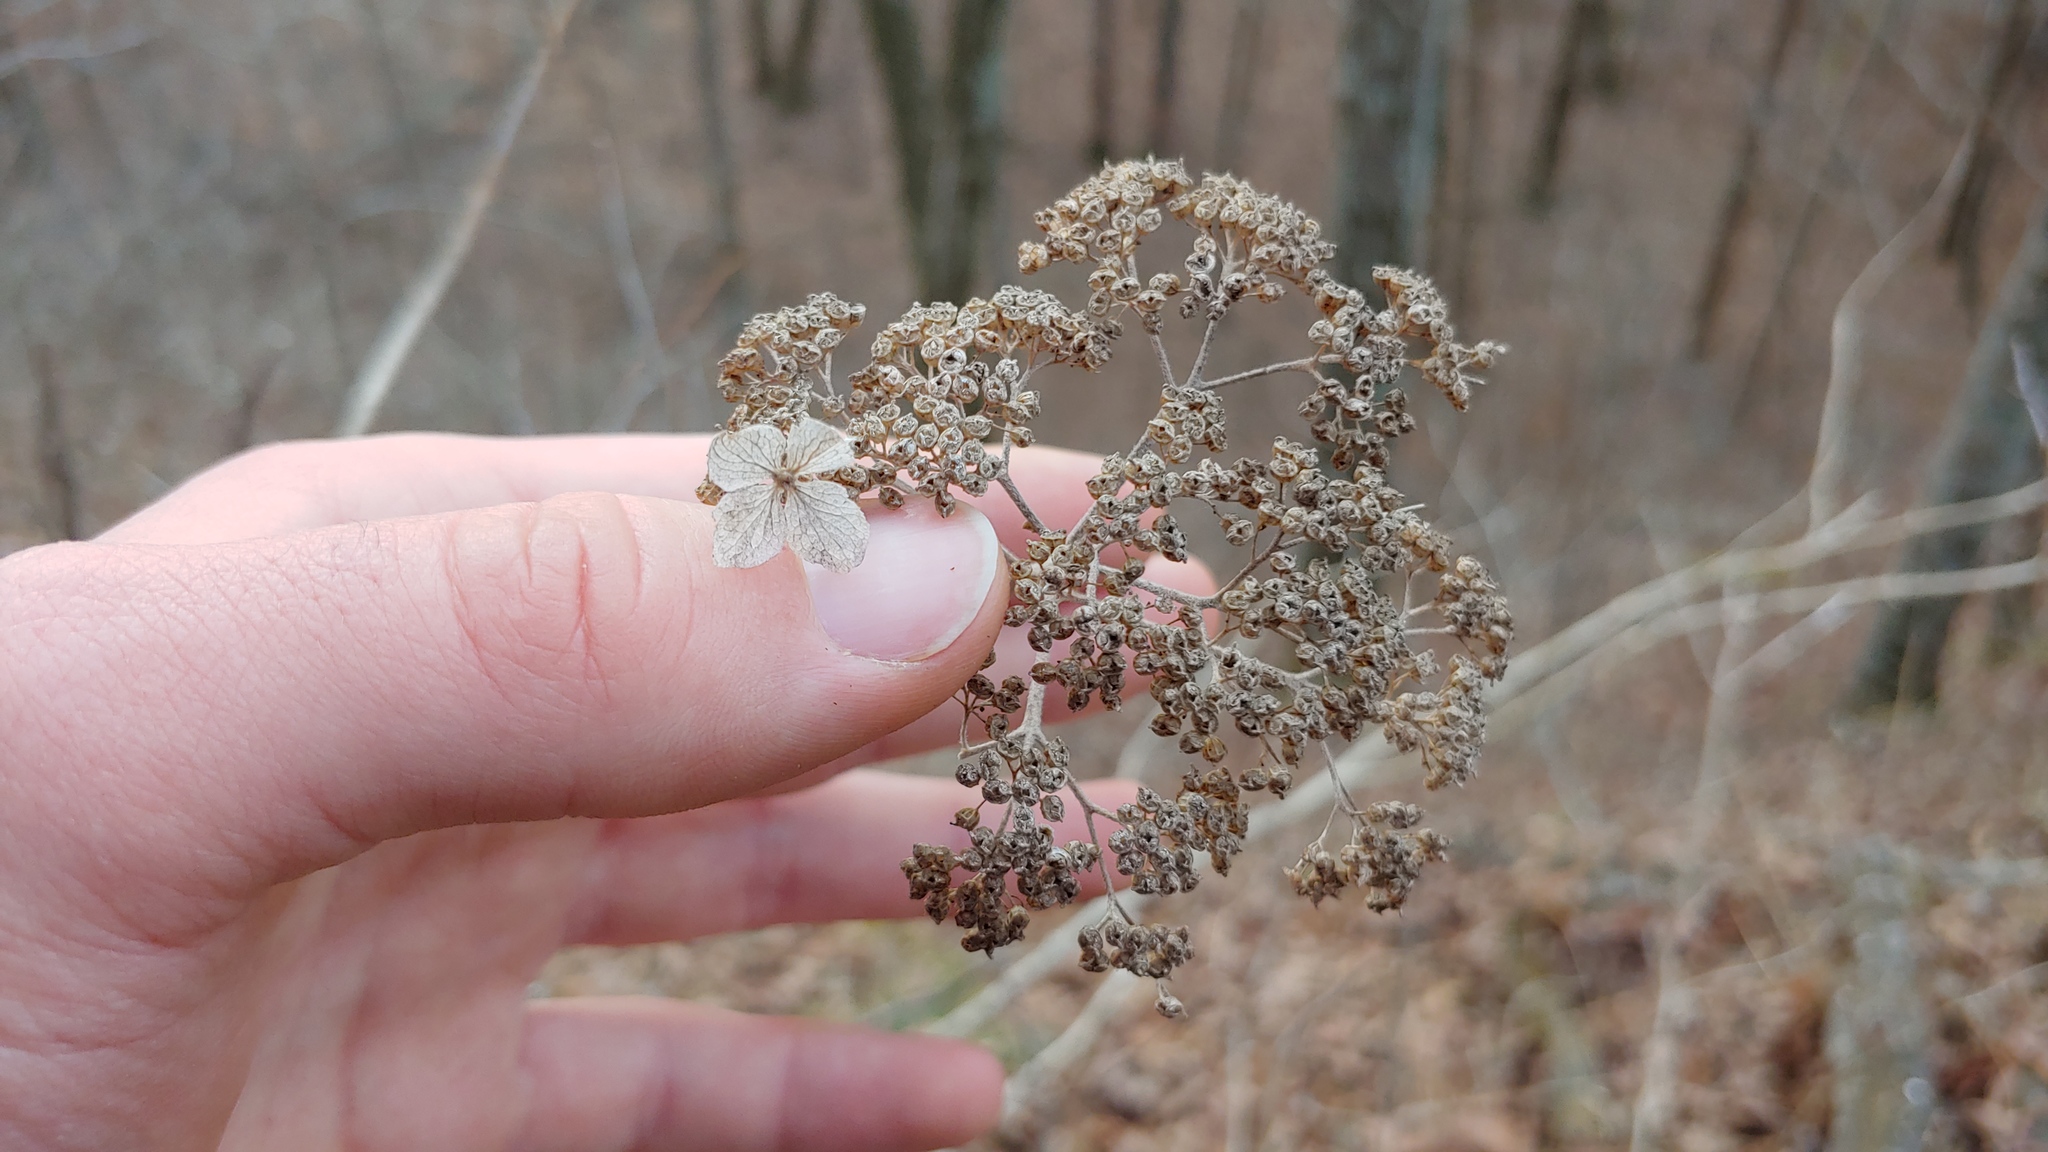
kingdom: Plantae
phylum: Tracheophyta
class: Magnoliopsida
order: Cornales
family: Hydrangeaceae
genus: Hydrangea
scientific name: Hydrangea arborescens
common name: Sevenbark
